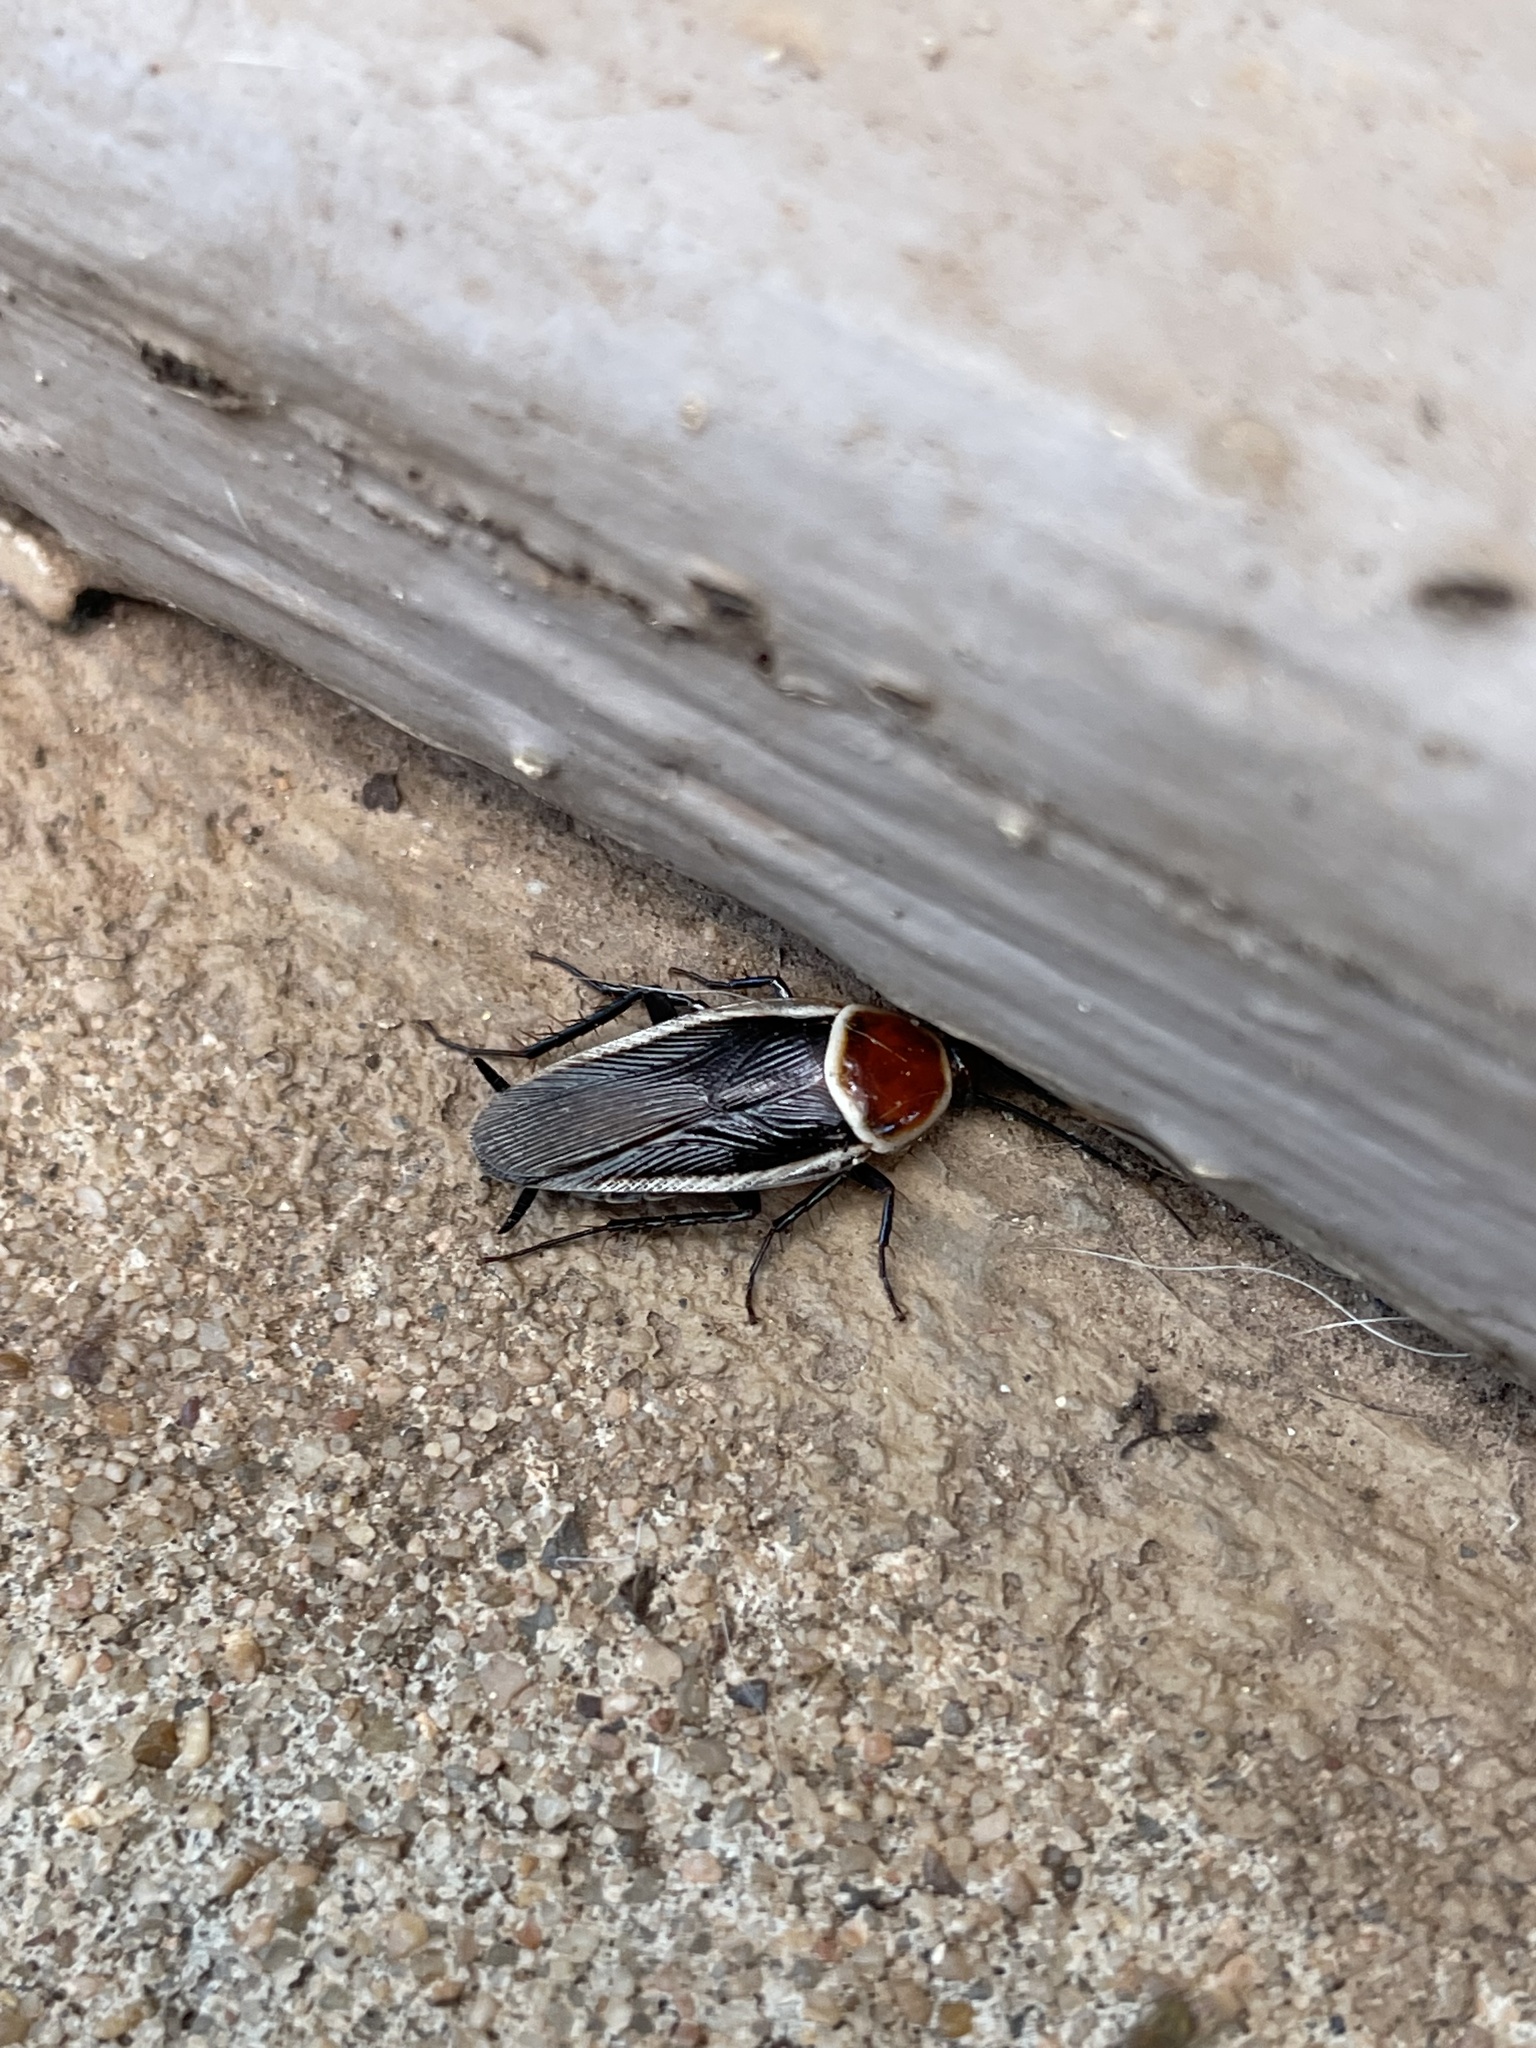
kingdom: Animalia
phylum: Arthropoda
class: Insecta
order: Blattodea
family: Ectobiidae
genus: Pseudomops
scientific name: Pseudomops septentrionalis
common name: Pale-bordered field cockroach
